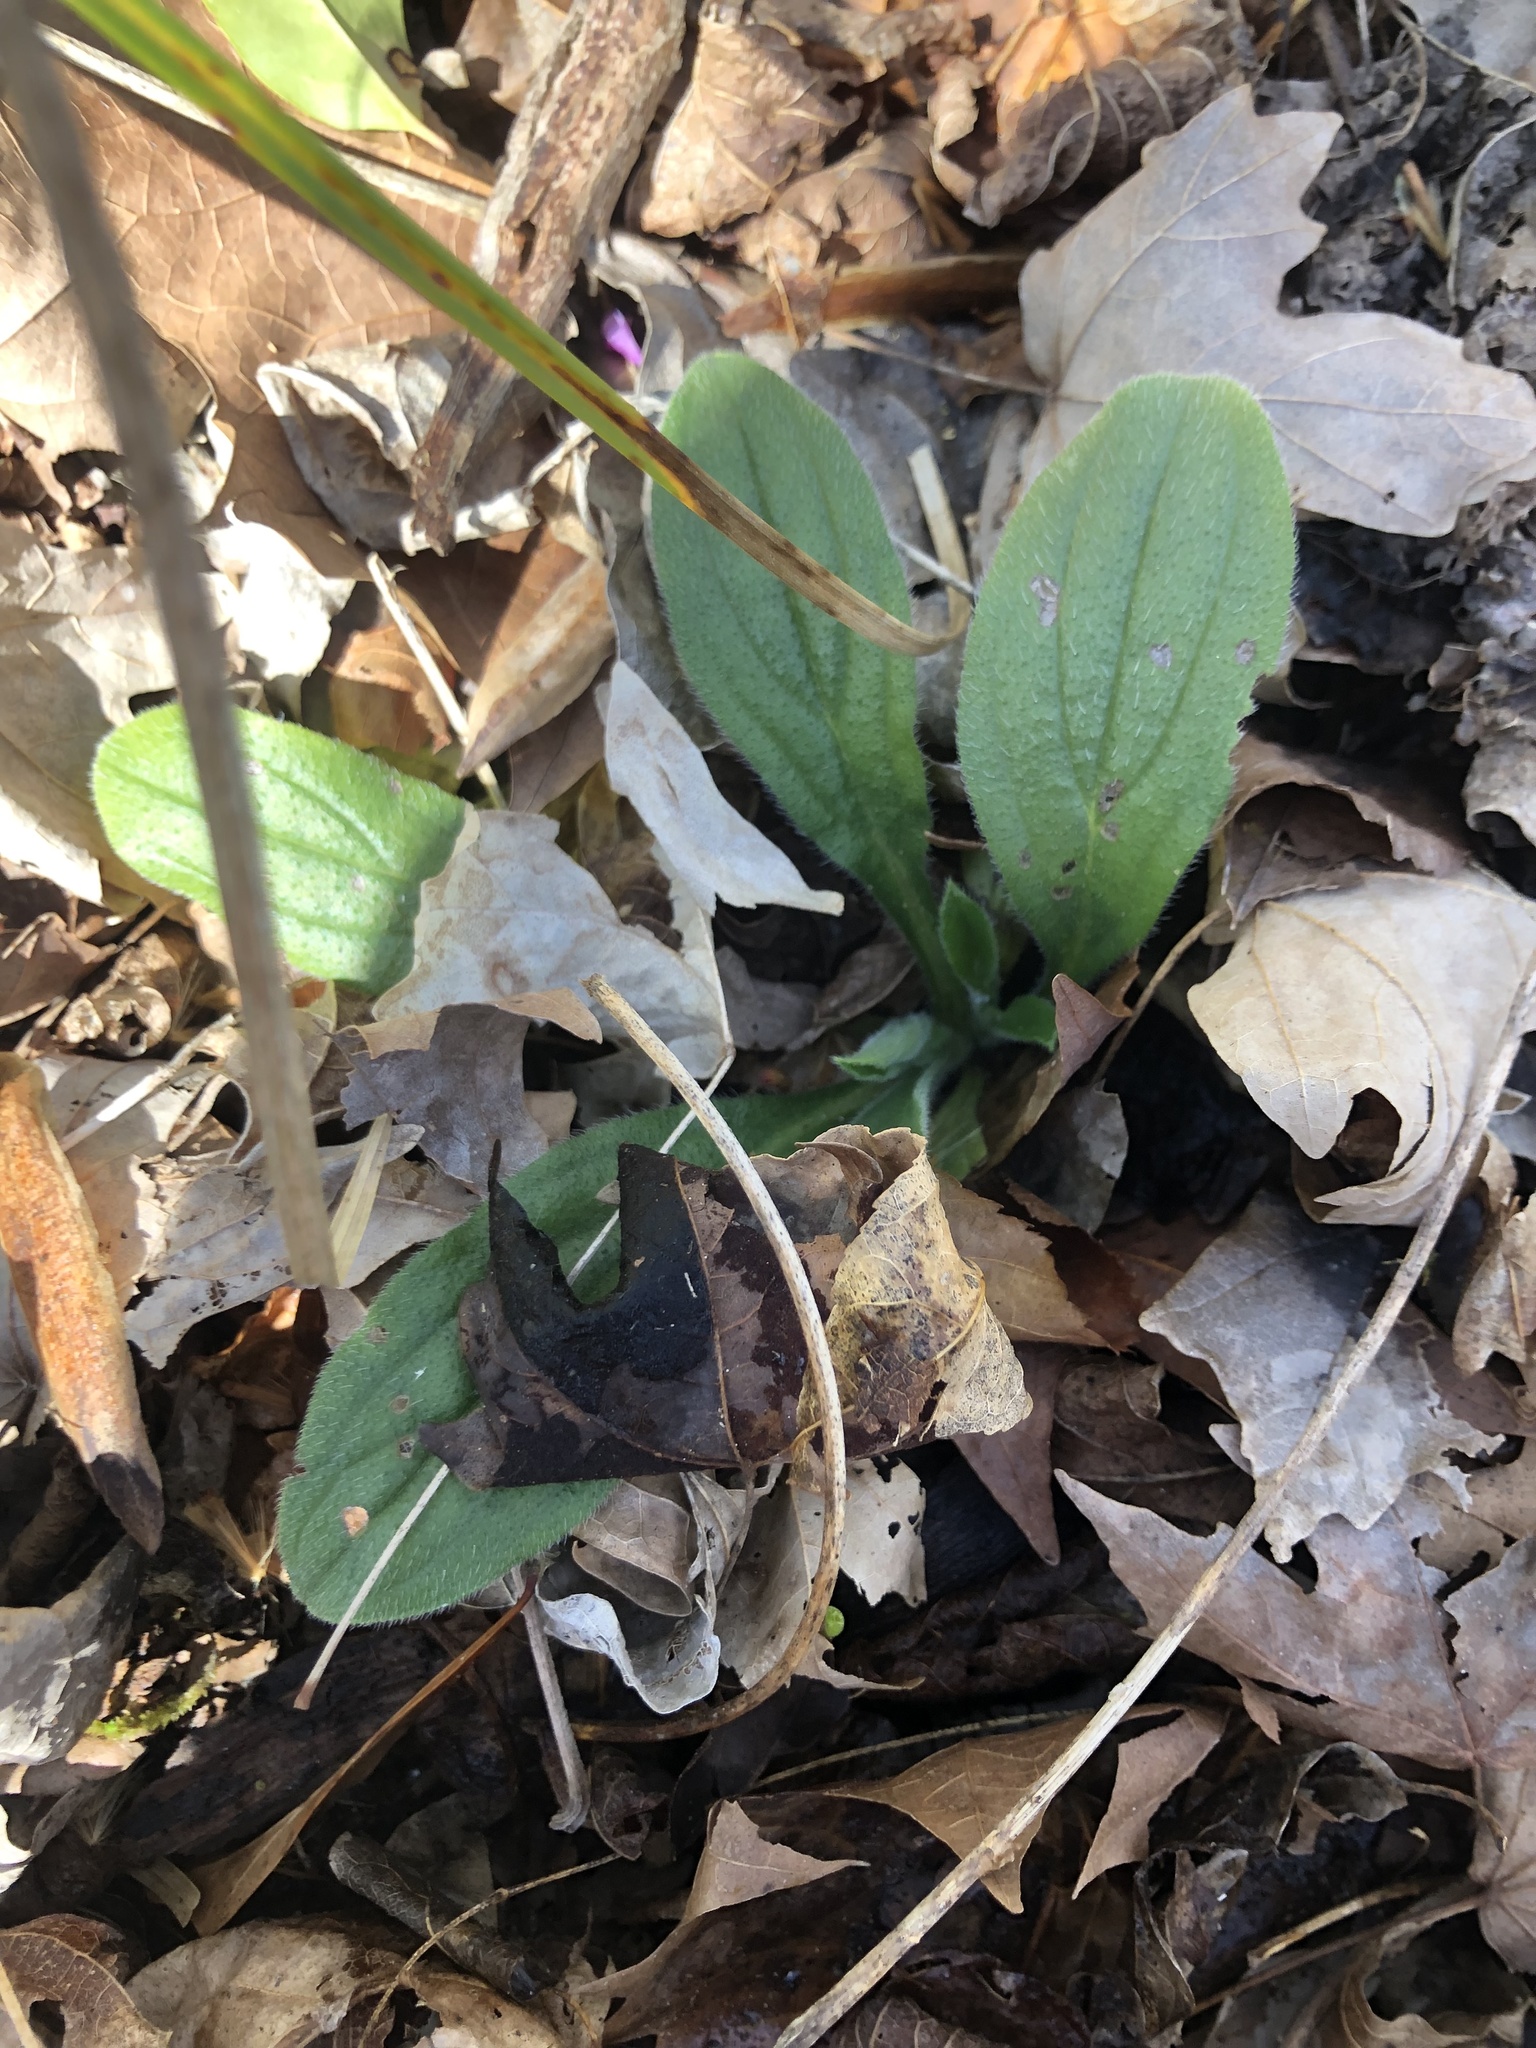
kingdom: Plantae
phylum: Tracheophyta
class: Magnoliopsida
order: Boraginales
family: Boraginaceae
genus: Lithospermum
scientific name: Lithospermum tuberosum
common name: Southern stoneseed
